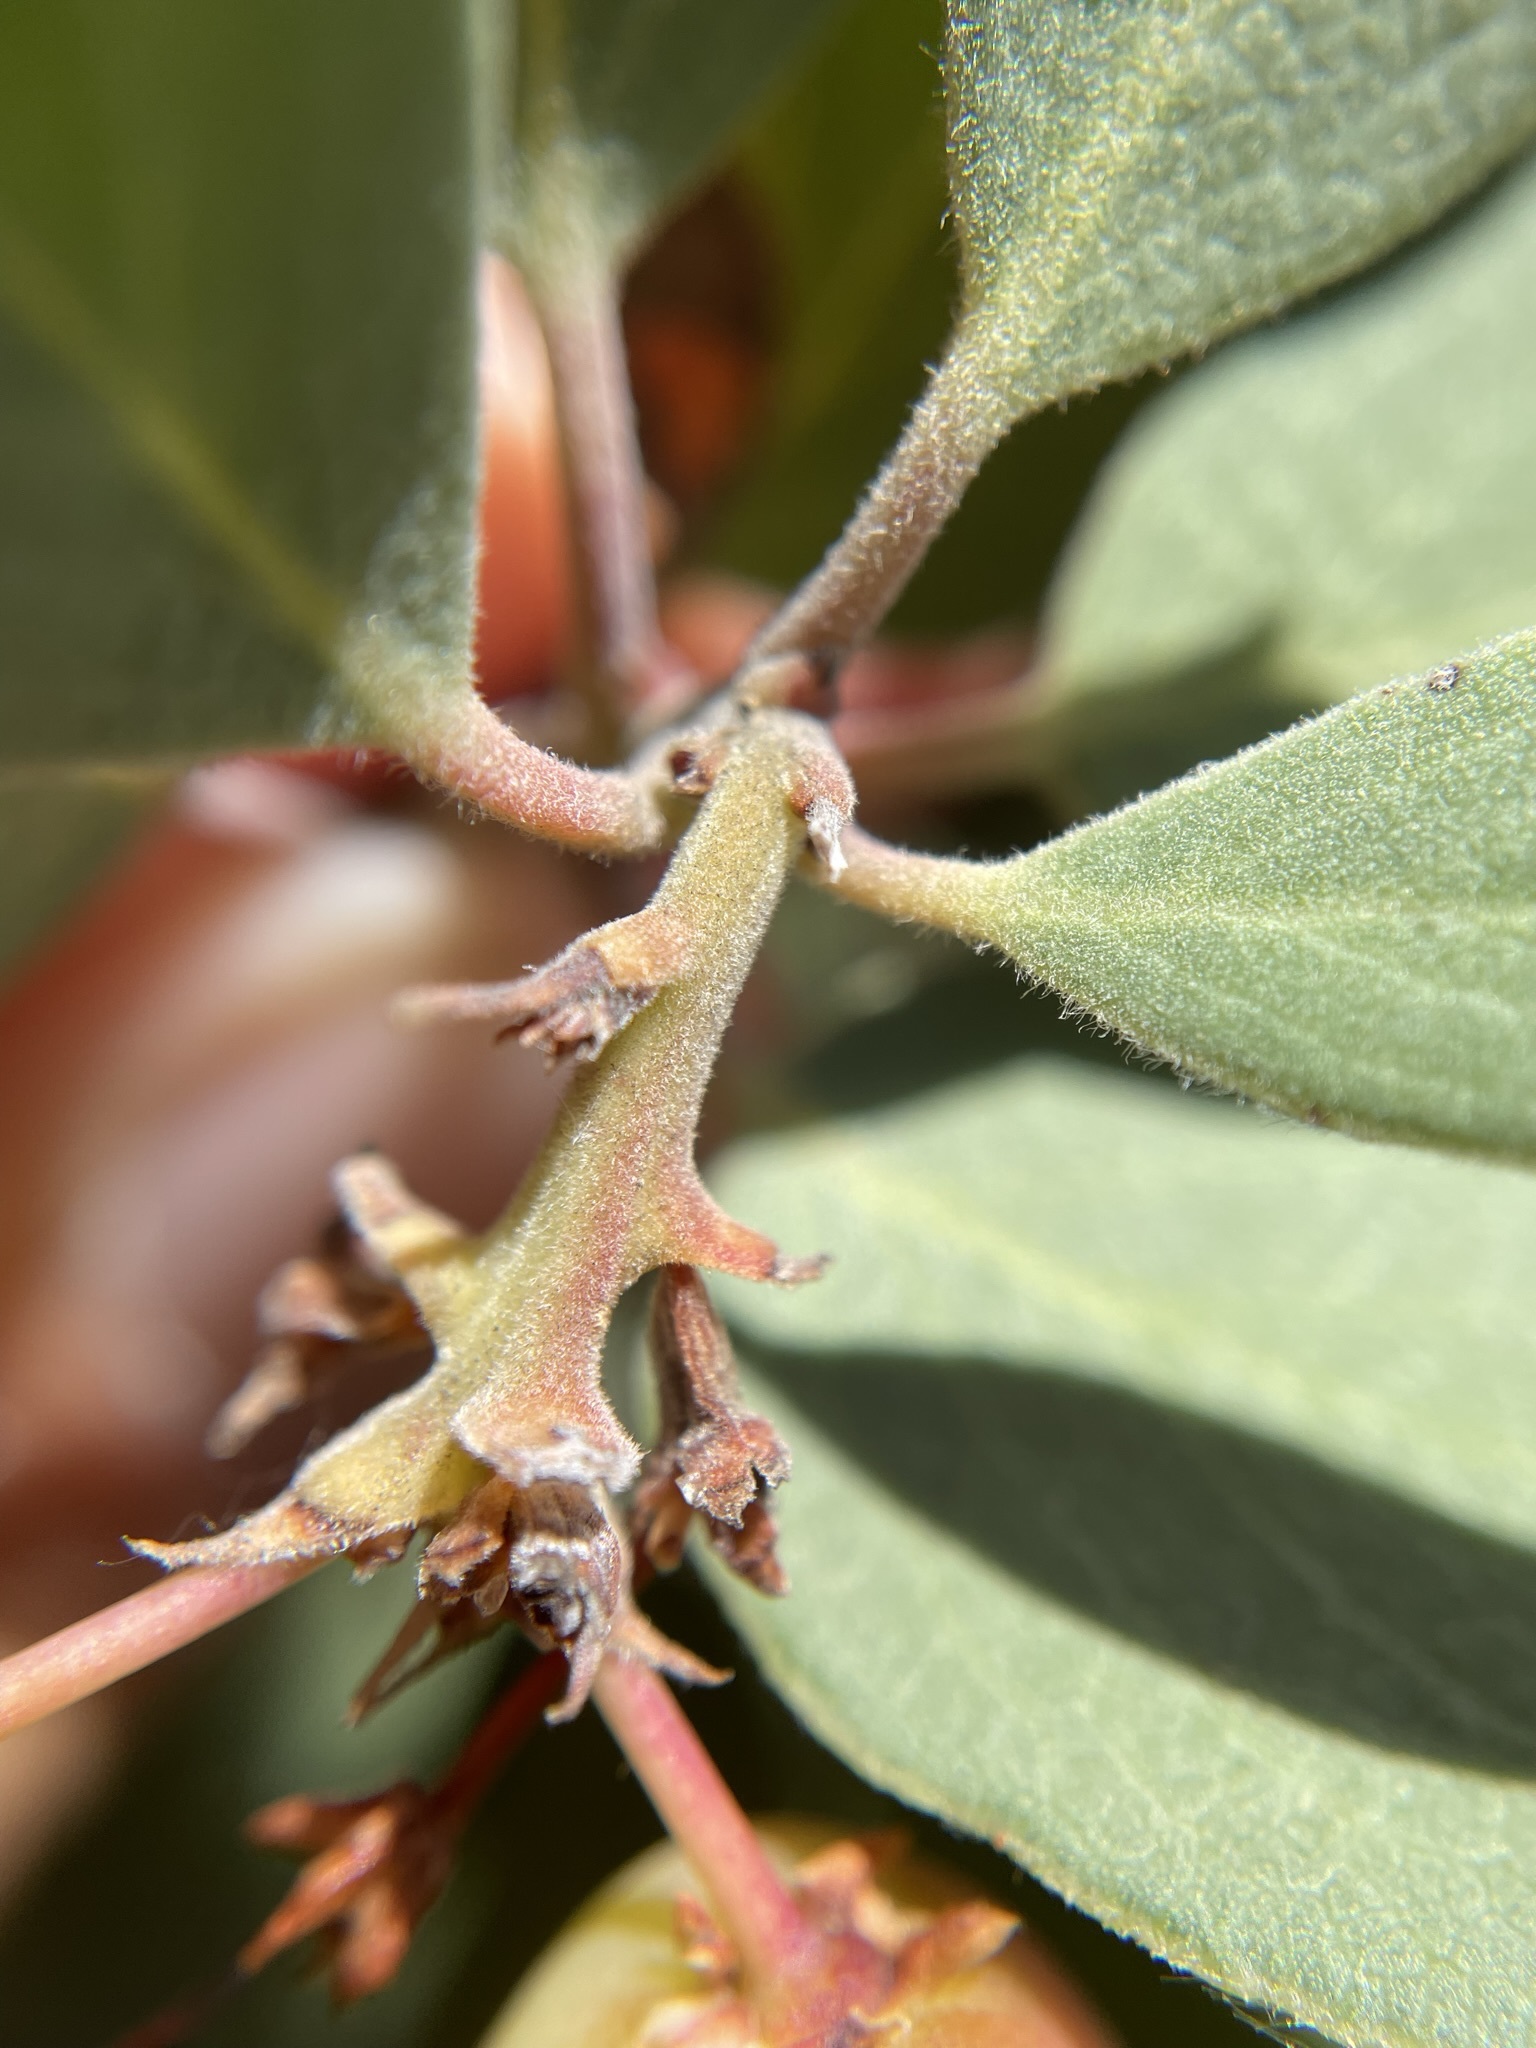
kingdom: Plantae
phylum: Tracheophyta
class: Magnoliopsida
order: Ericales
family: Ericaceae
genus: Arctostaphylos
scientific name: Arctostaphylos manzanita
